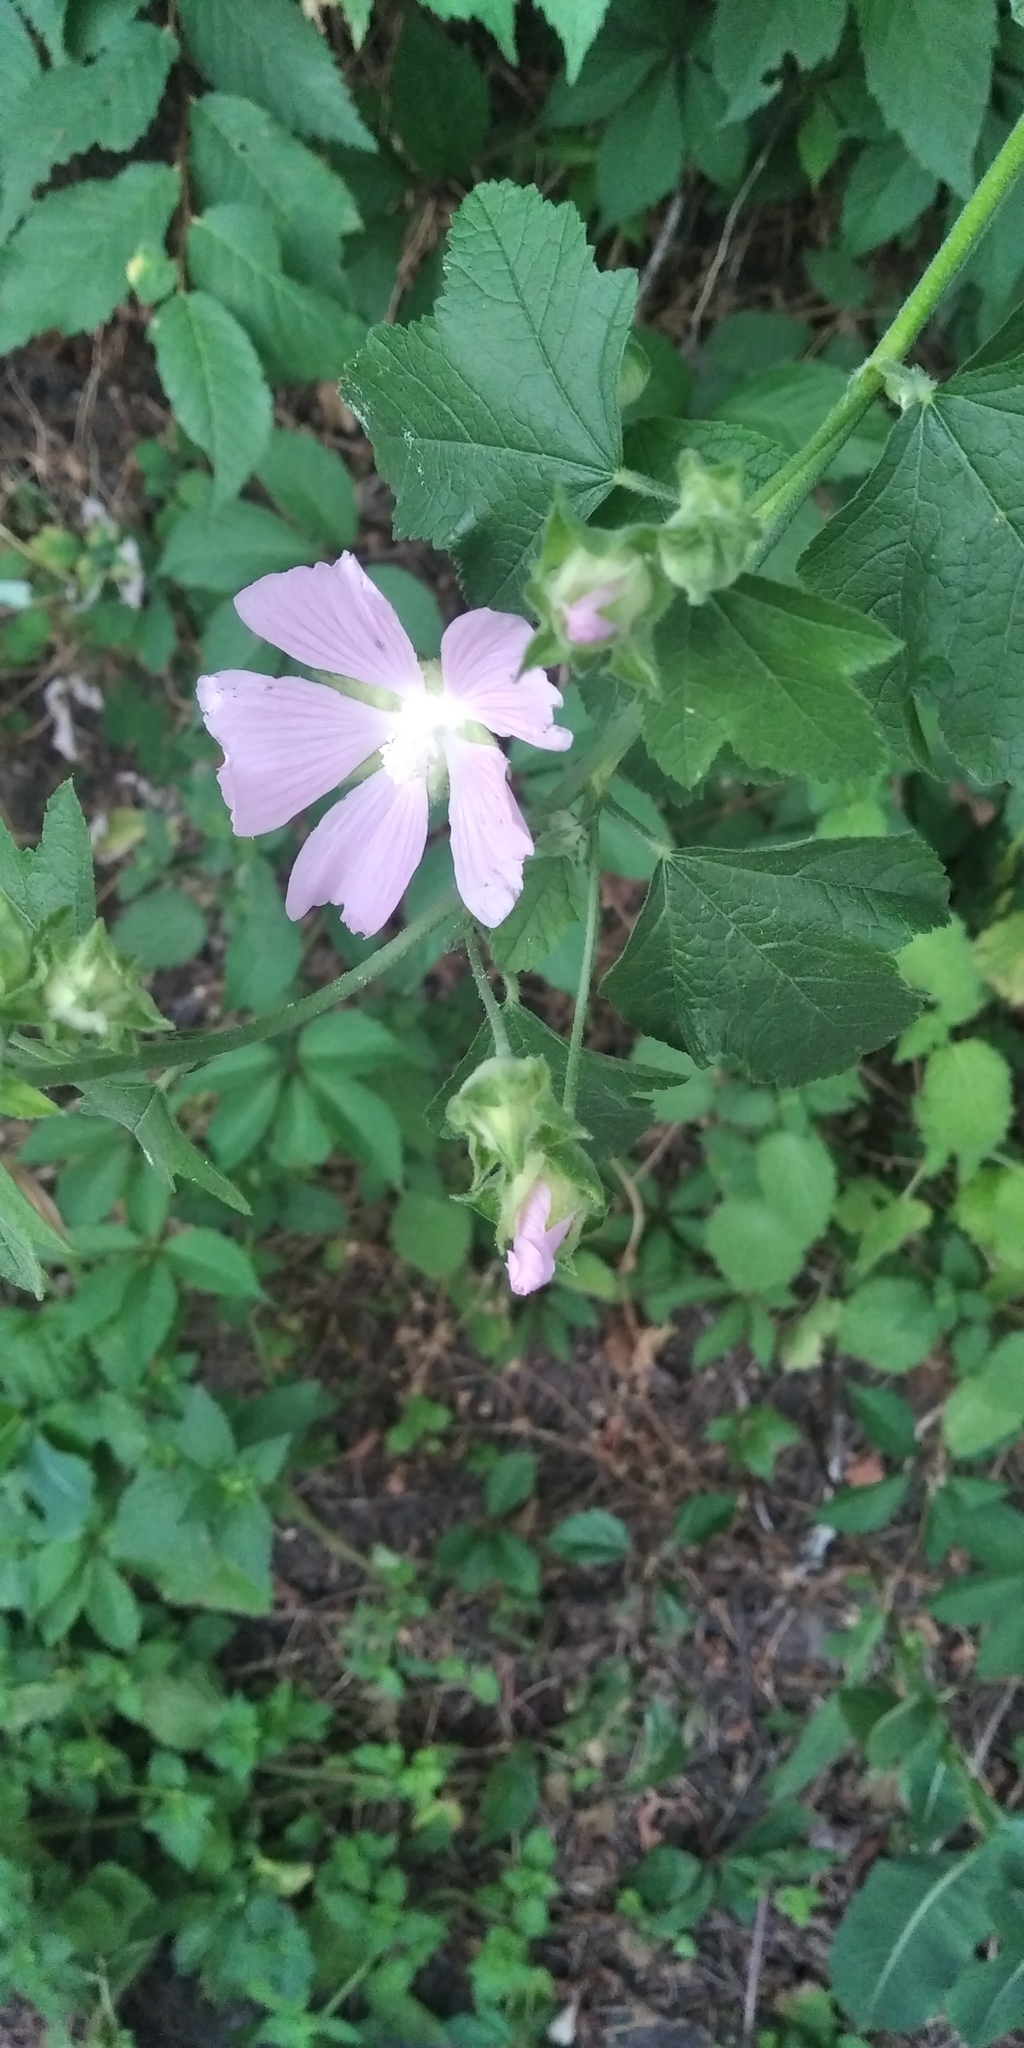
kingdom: Plantae
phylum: Tracheophyta
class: Magnoliopsida
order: Malvales
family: Malvaceae
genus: Malva
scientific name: Malva thuringiaca
